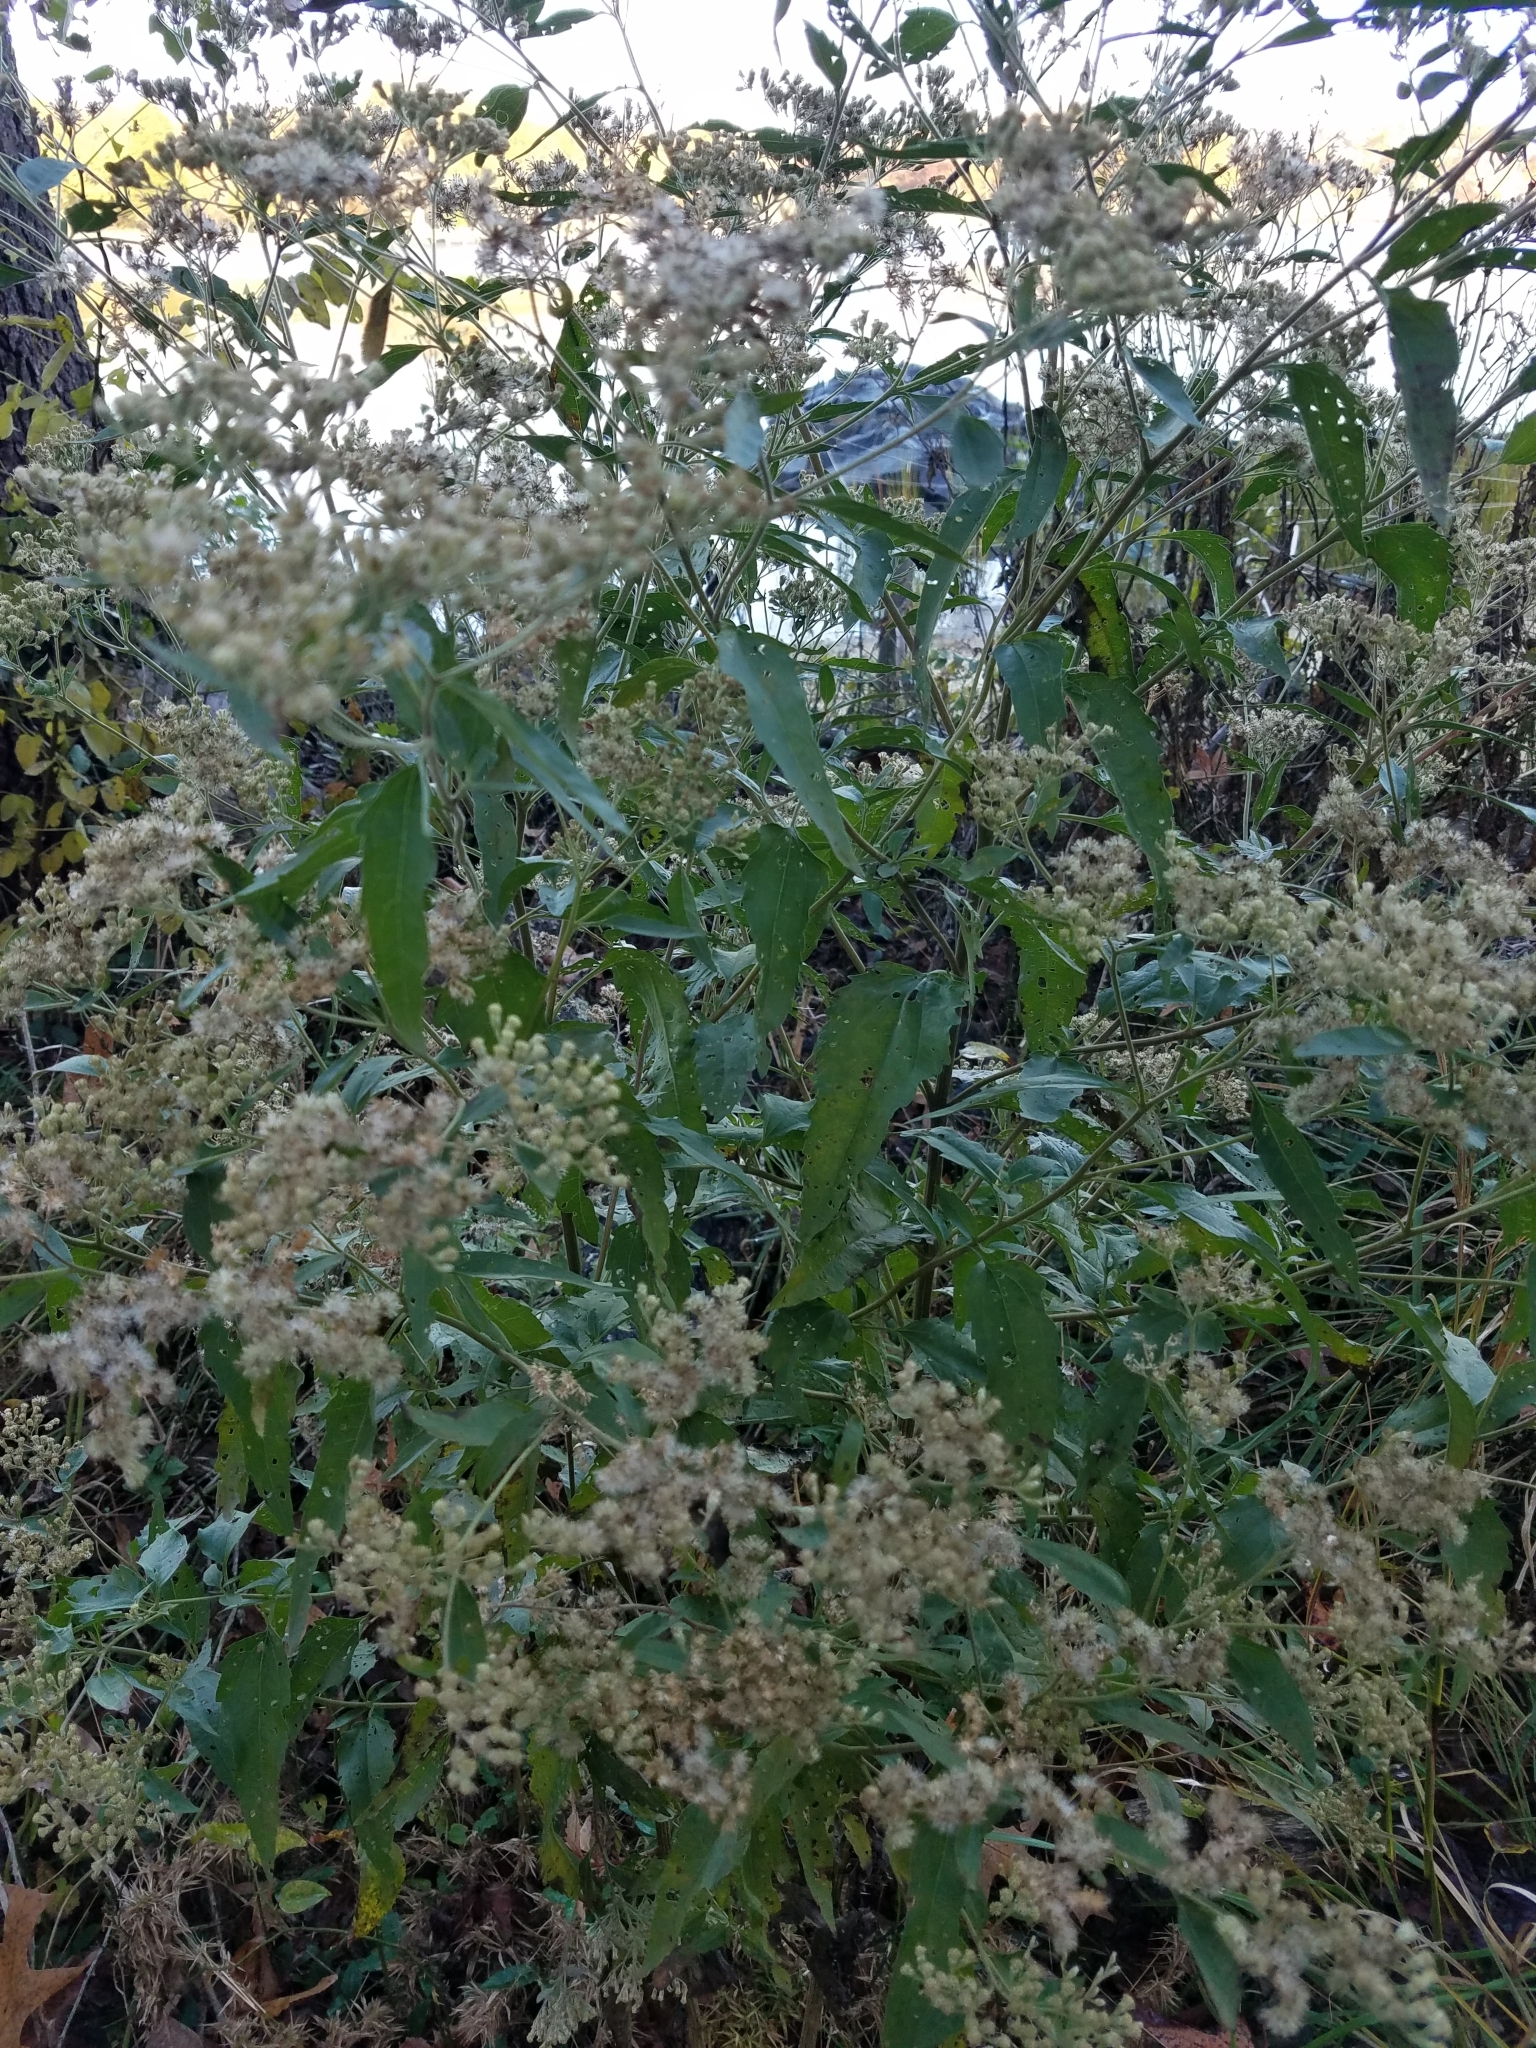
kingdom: Plantae
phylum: Tracheophyta
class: Magnoliopsida
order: Asterales
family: Asteraceae
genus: Eupatorium
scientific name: Eupatorium serotinum
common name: Late boneset
